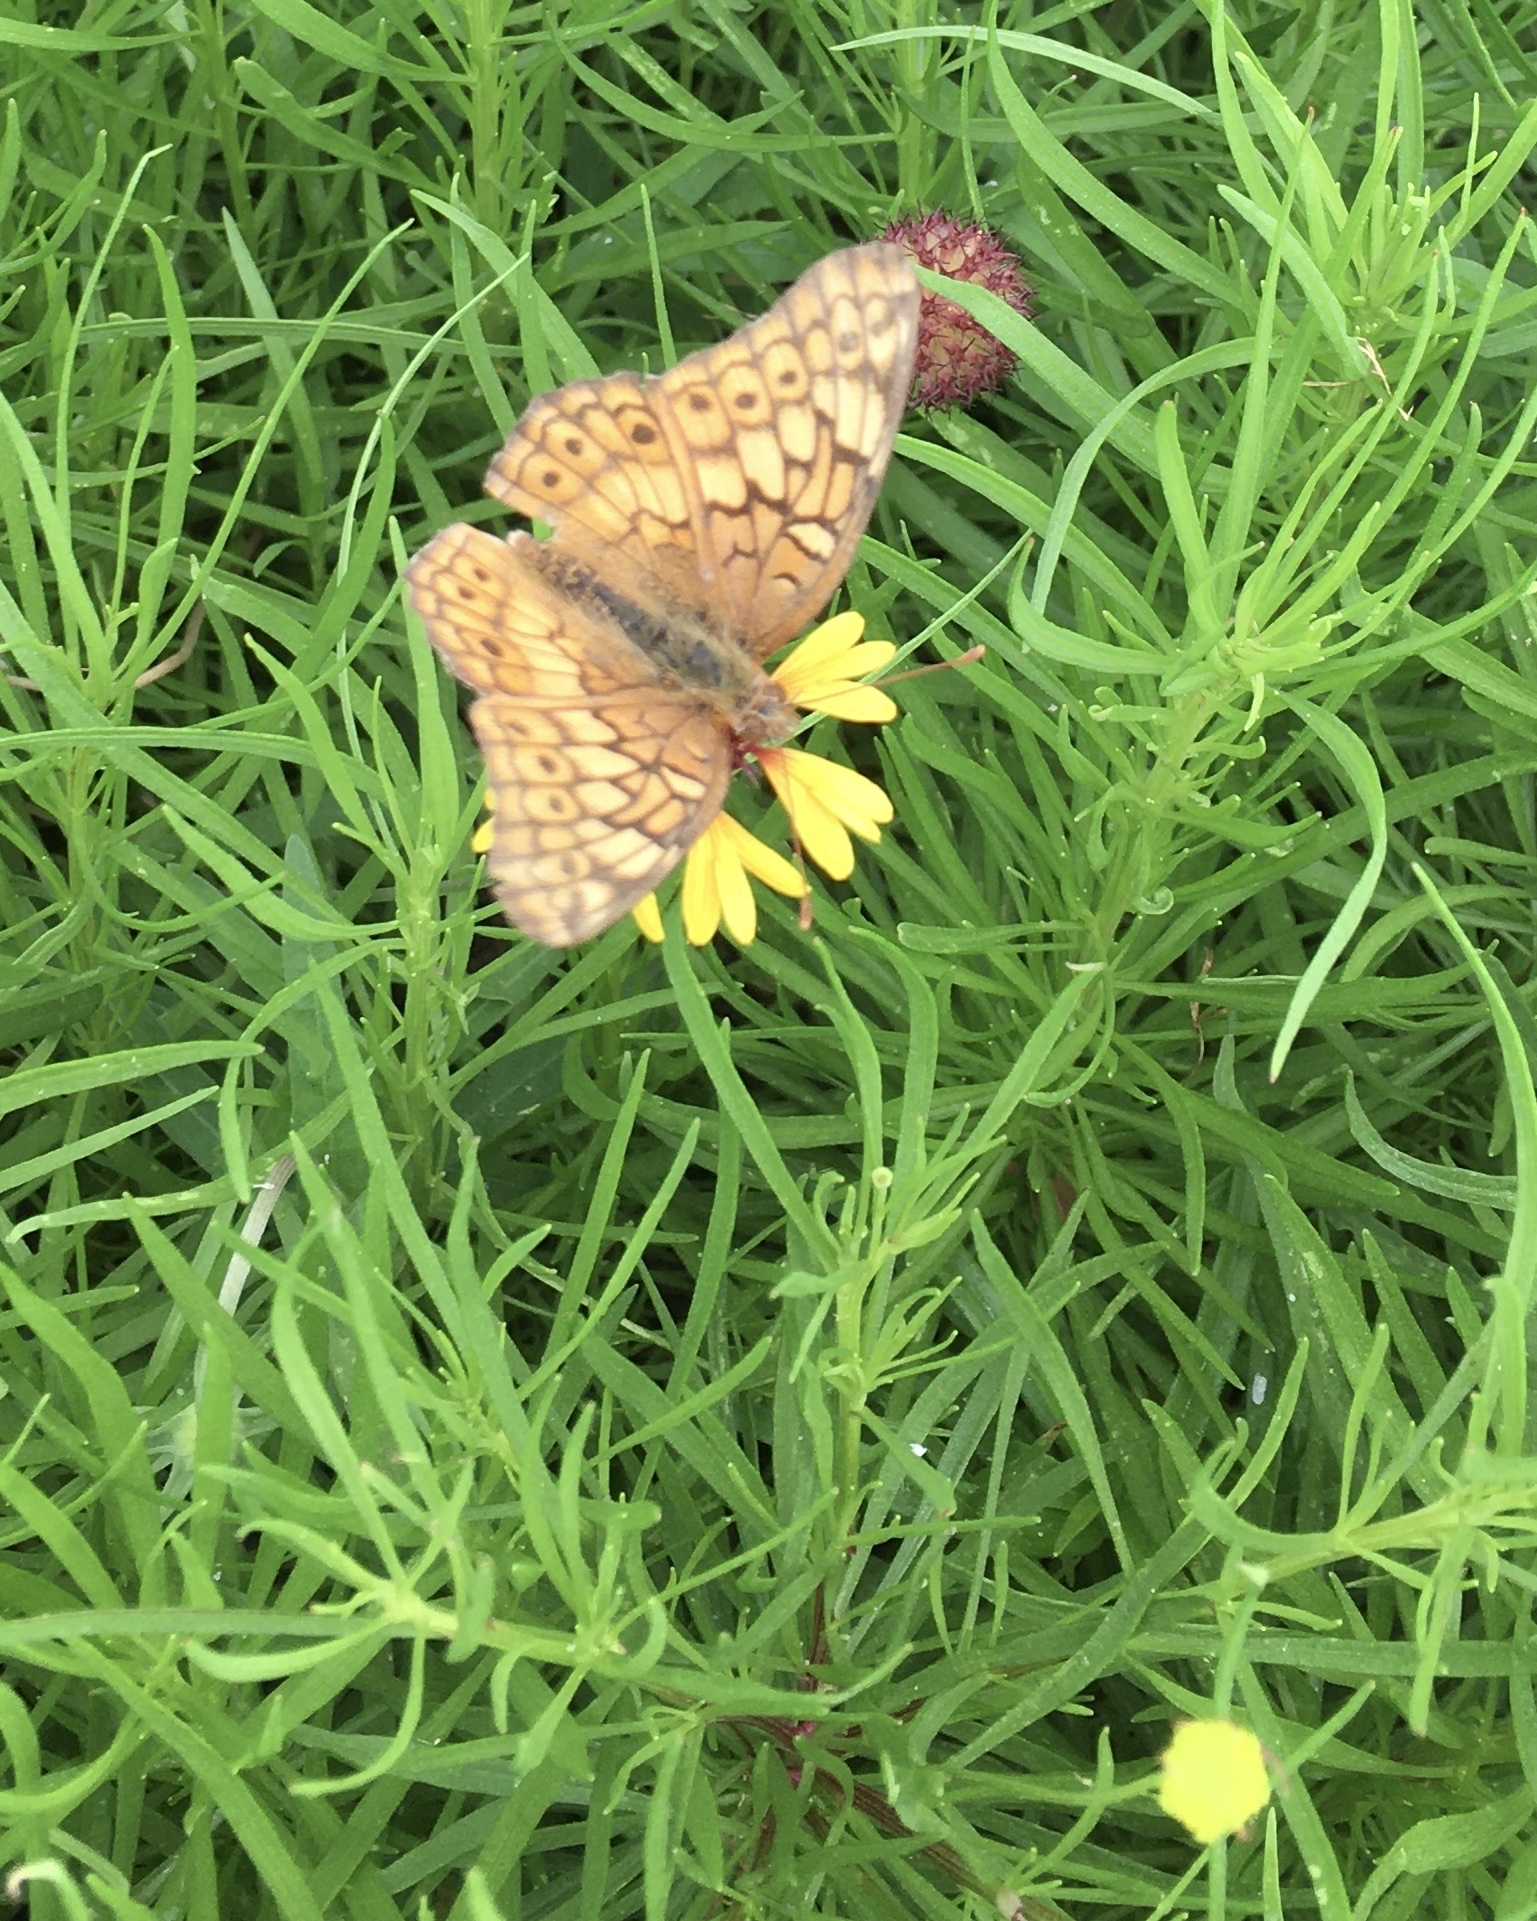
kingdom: Animalia
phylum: Arthropoda
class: Insecta
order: Lepidoptera
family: Nymphalidae
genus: Euptoieta
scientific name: Euptoieta claudia
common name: Variegated fritillary
